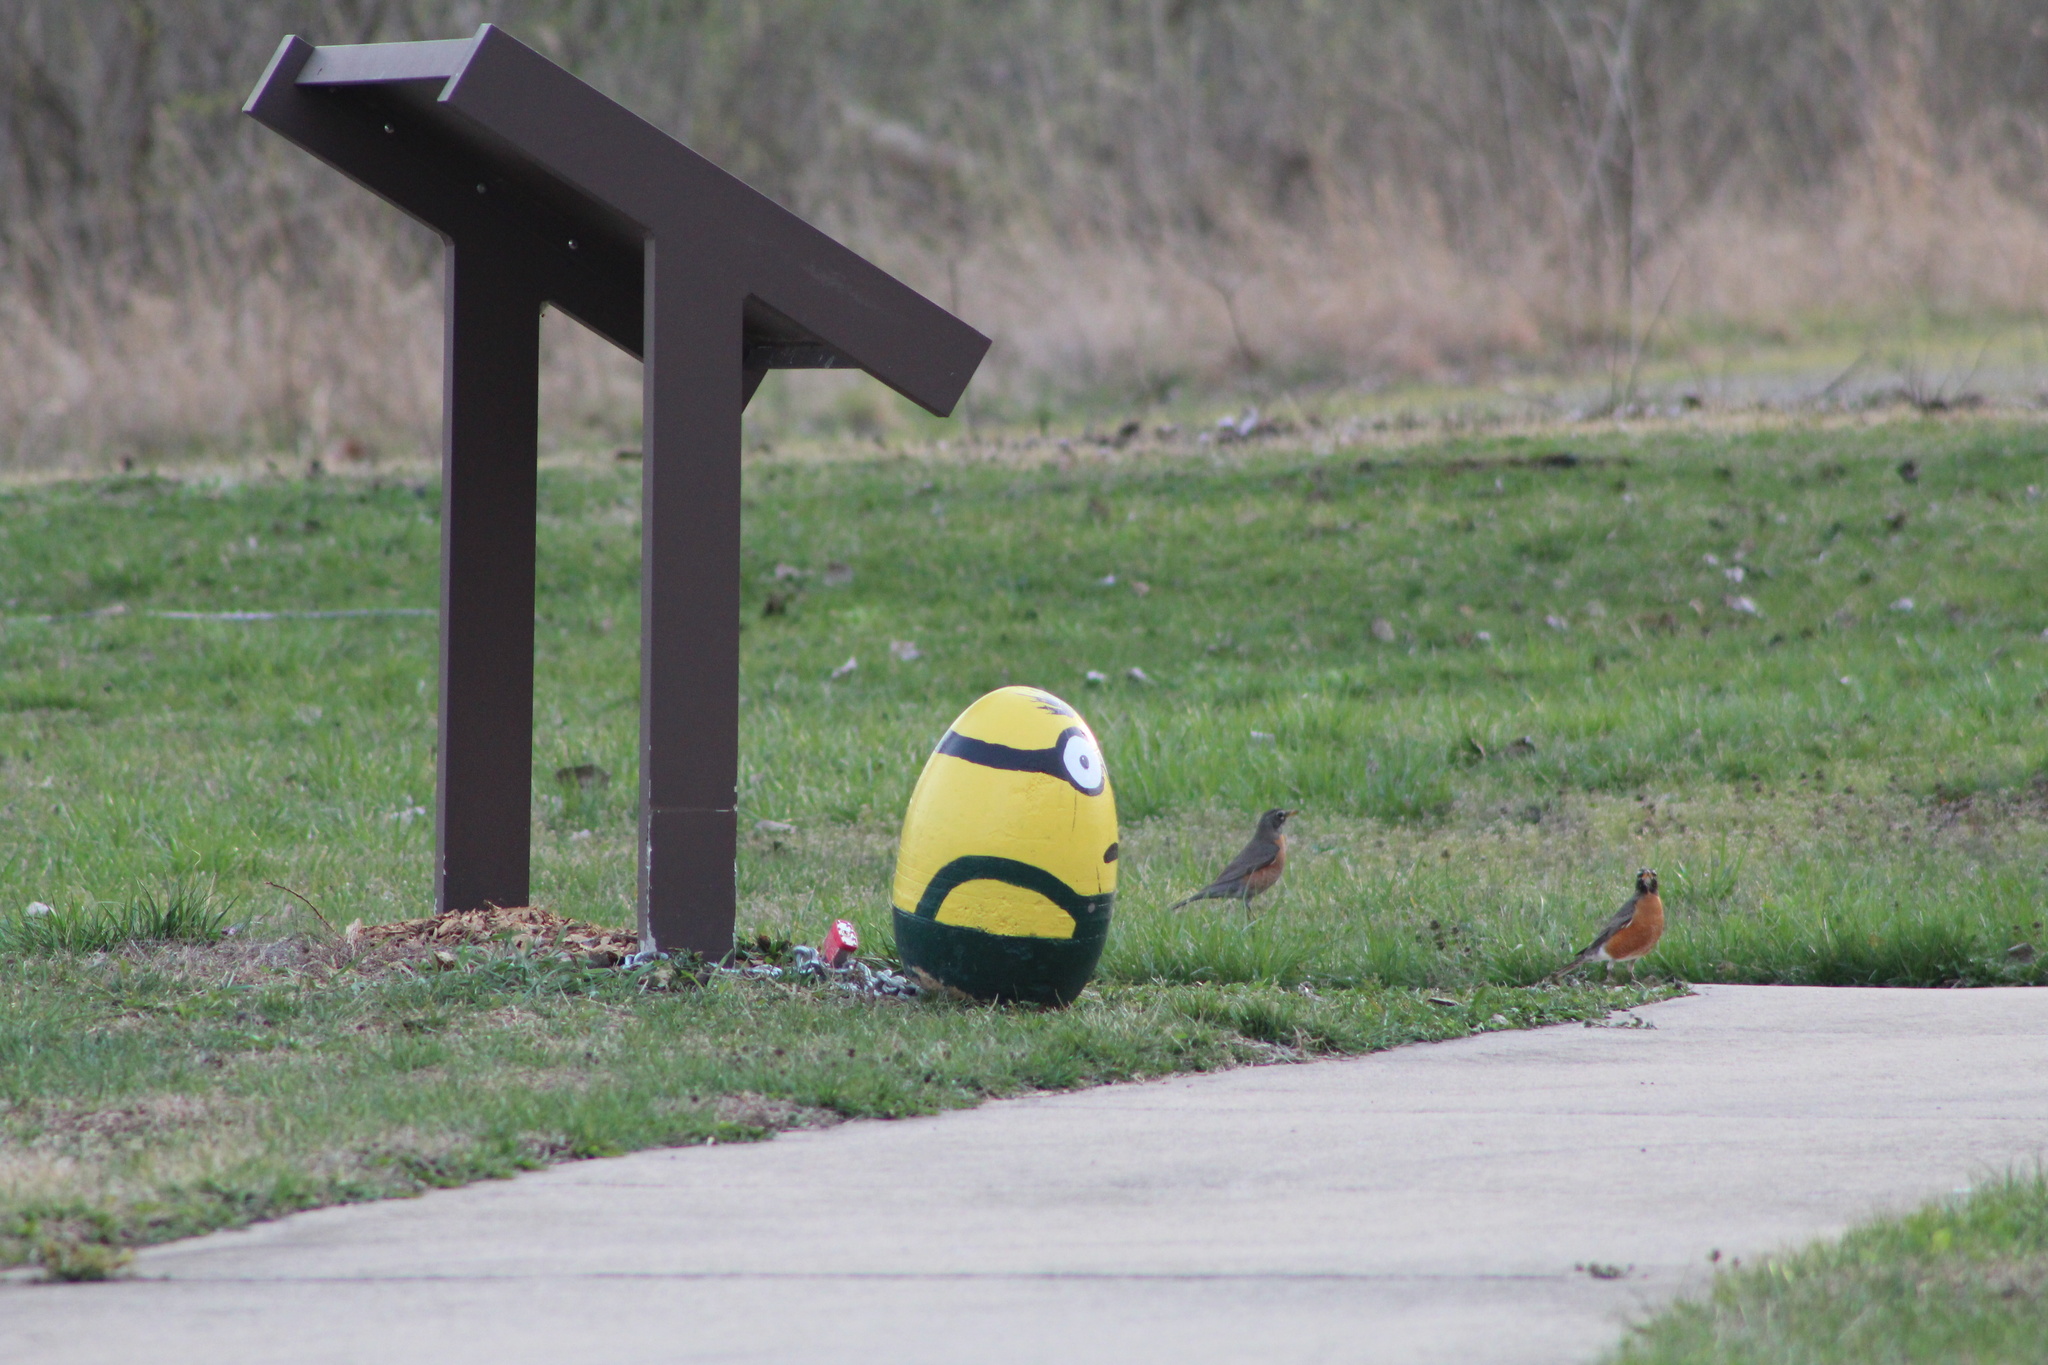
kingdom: Animalia
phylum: Chordata
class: Aves
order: Passeriformes
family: Turdidae
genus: Turdus
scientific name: Turdus migratorius
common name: American robin
